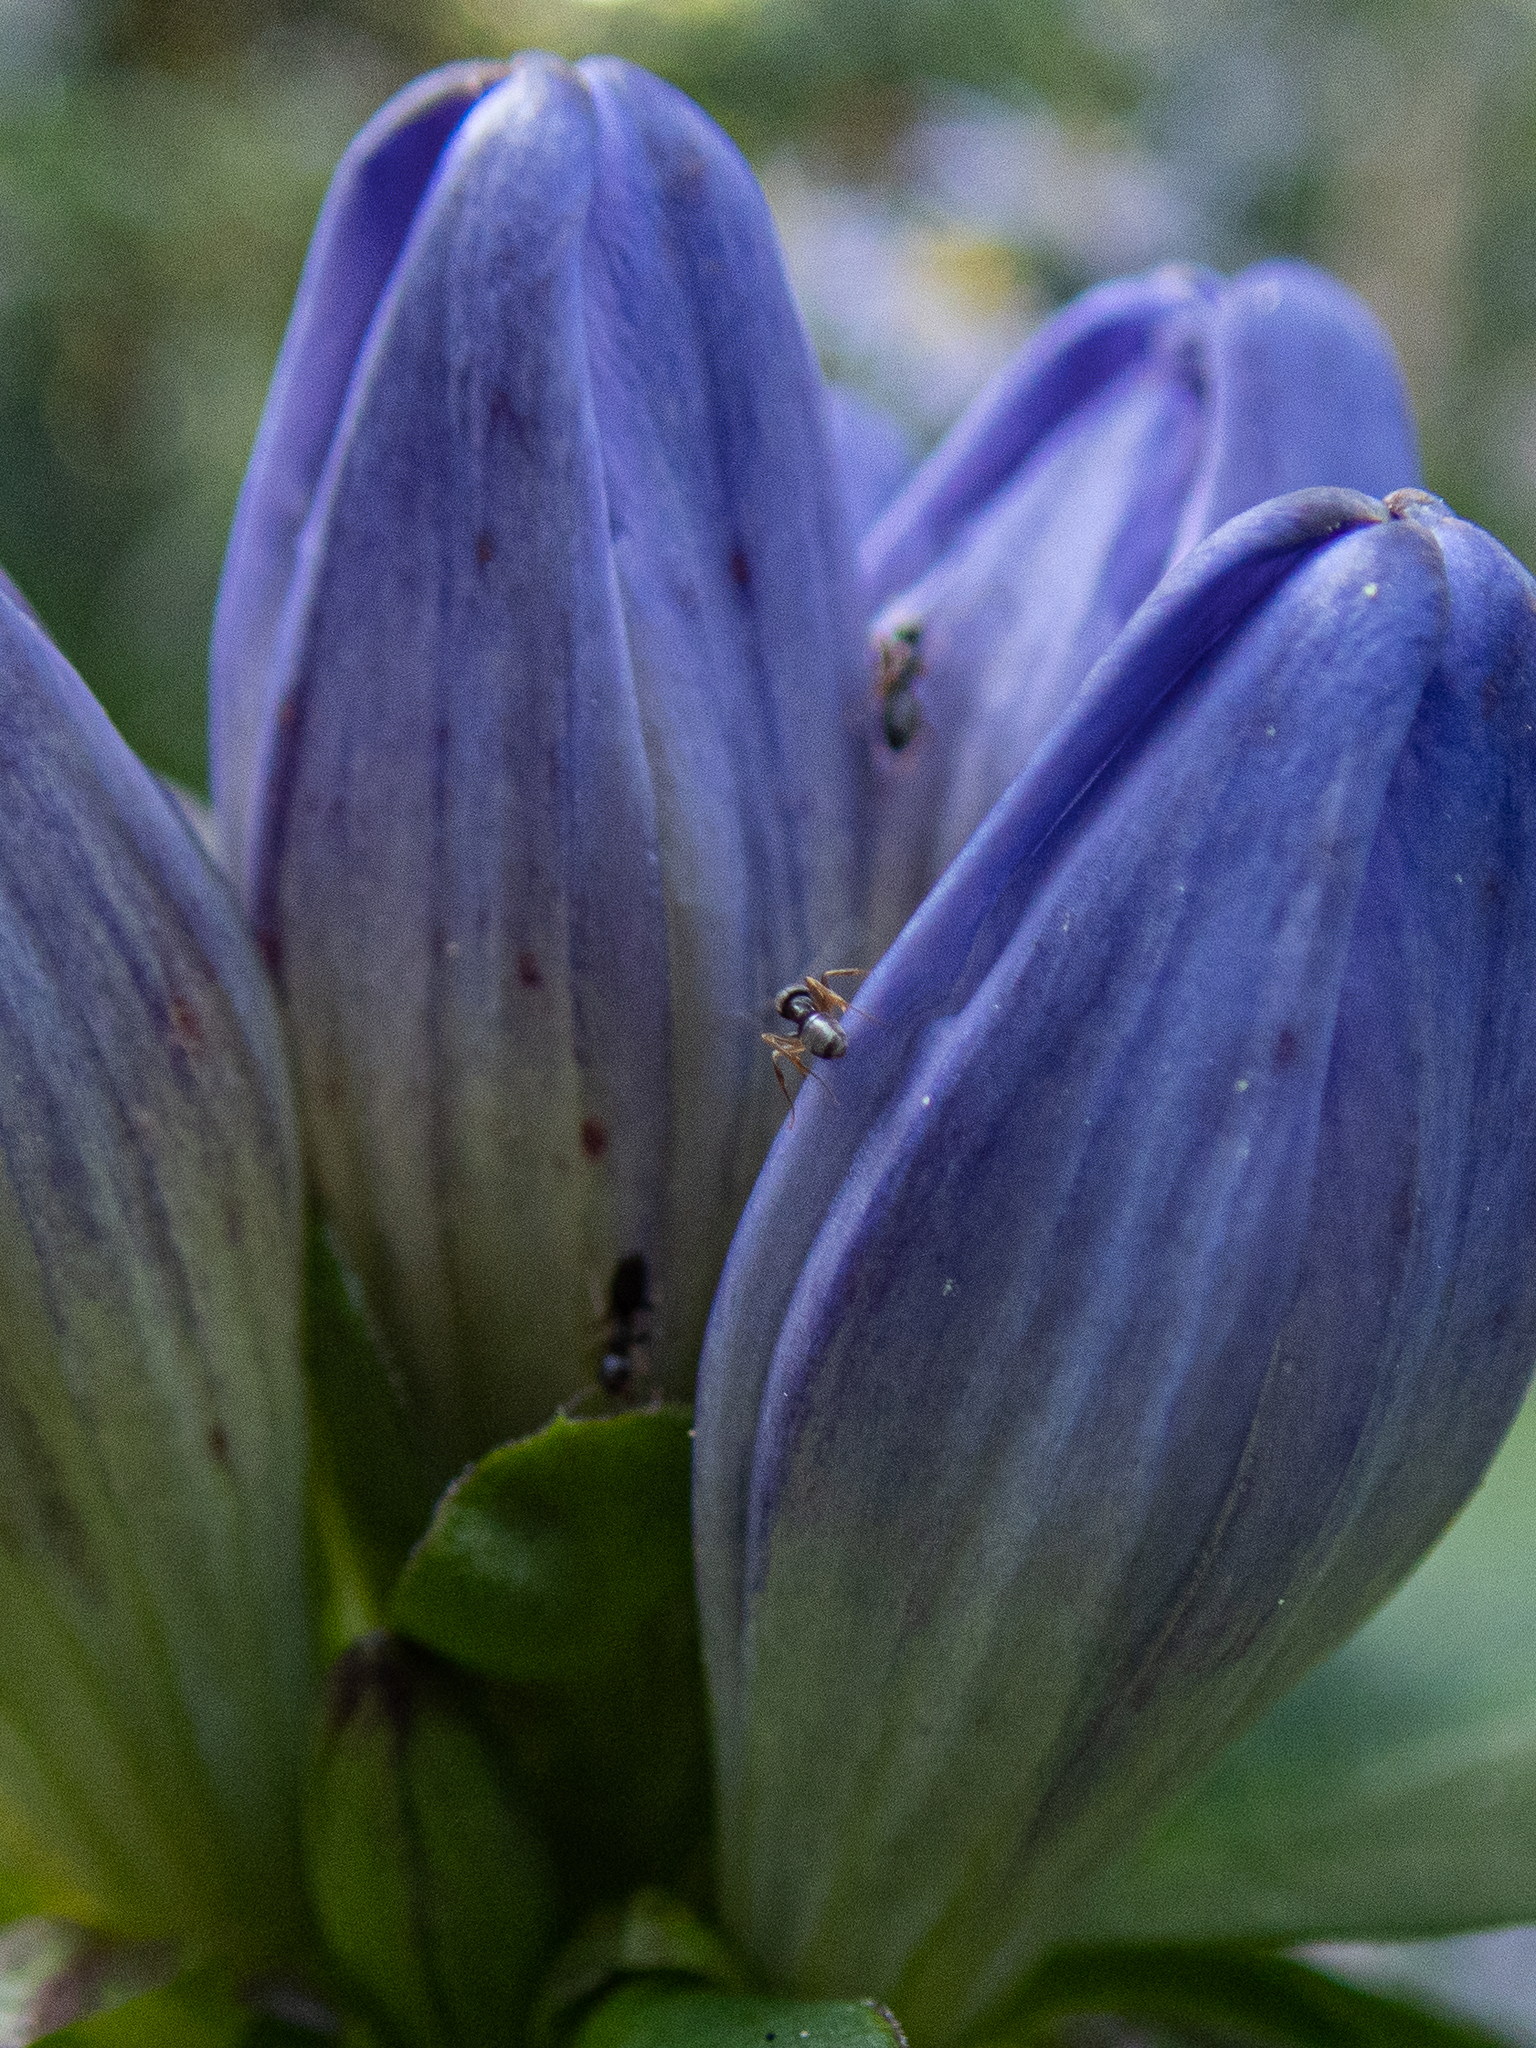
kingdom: Animalia
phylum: Arthropoda
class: Insecta
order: Hymenoptera
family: Formicidae
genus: Tapinoma
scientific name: Tapinoma sessile
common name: Odorous house ant
